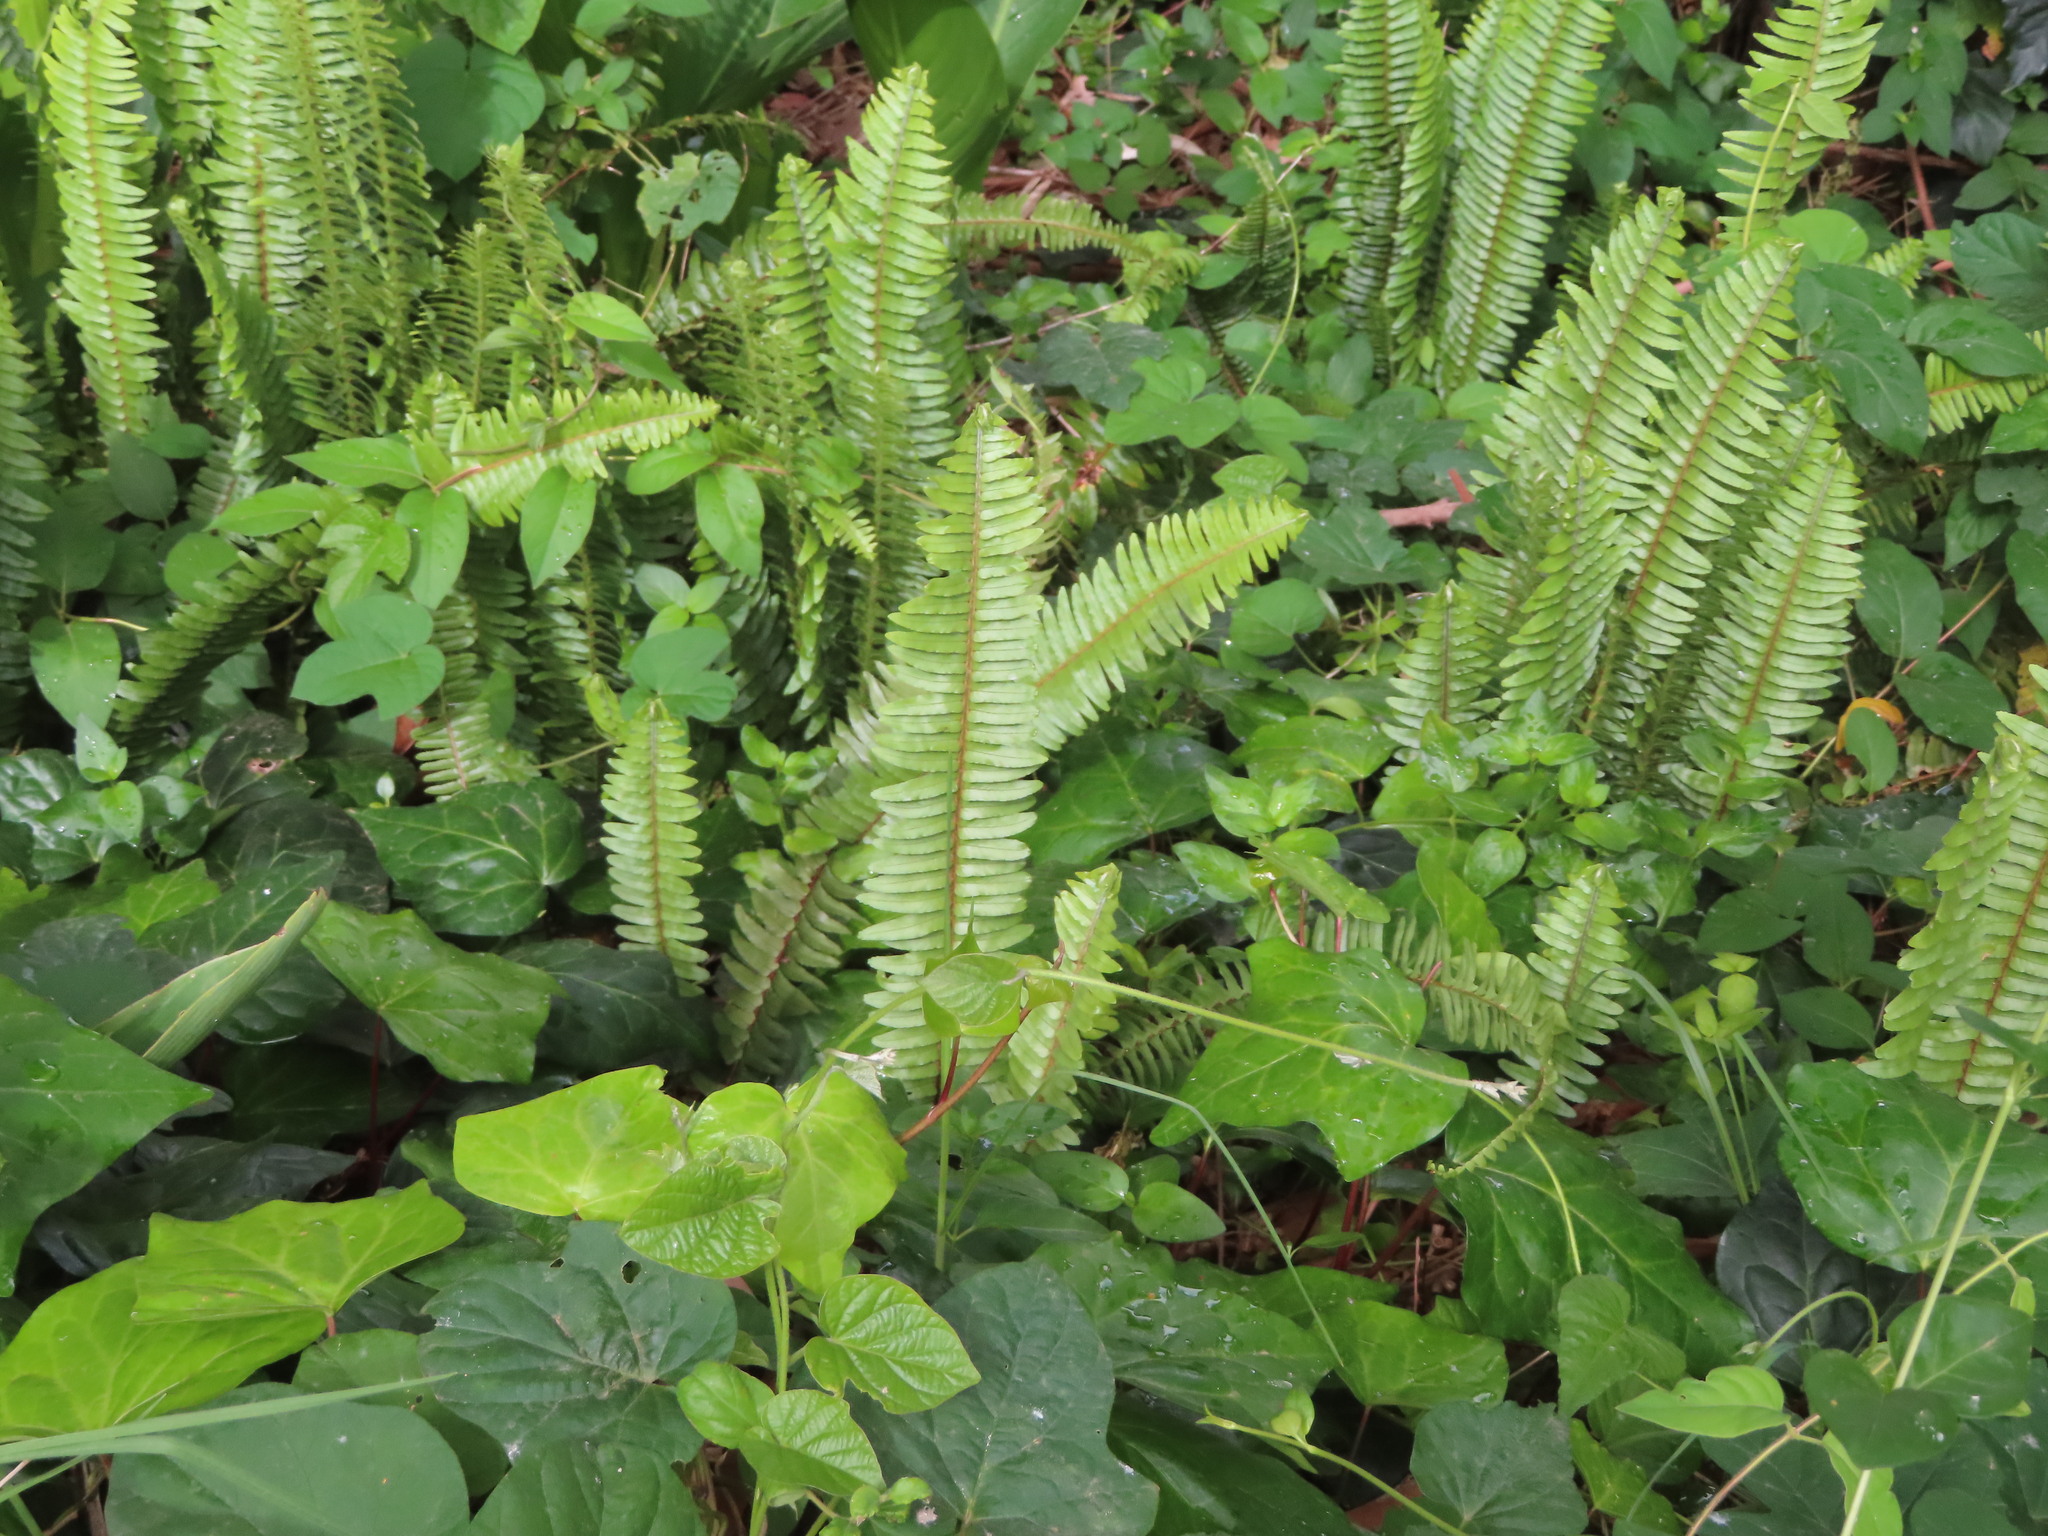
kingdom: Plantae
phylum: Tracheophyta
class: Polypodiopsida
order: Polypodiales
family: Nephrolepidaceae
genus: Nephrolepis
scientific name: Nephrolepis cordifolia
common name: Narrow swordfern
